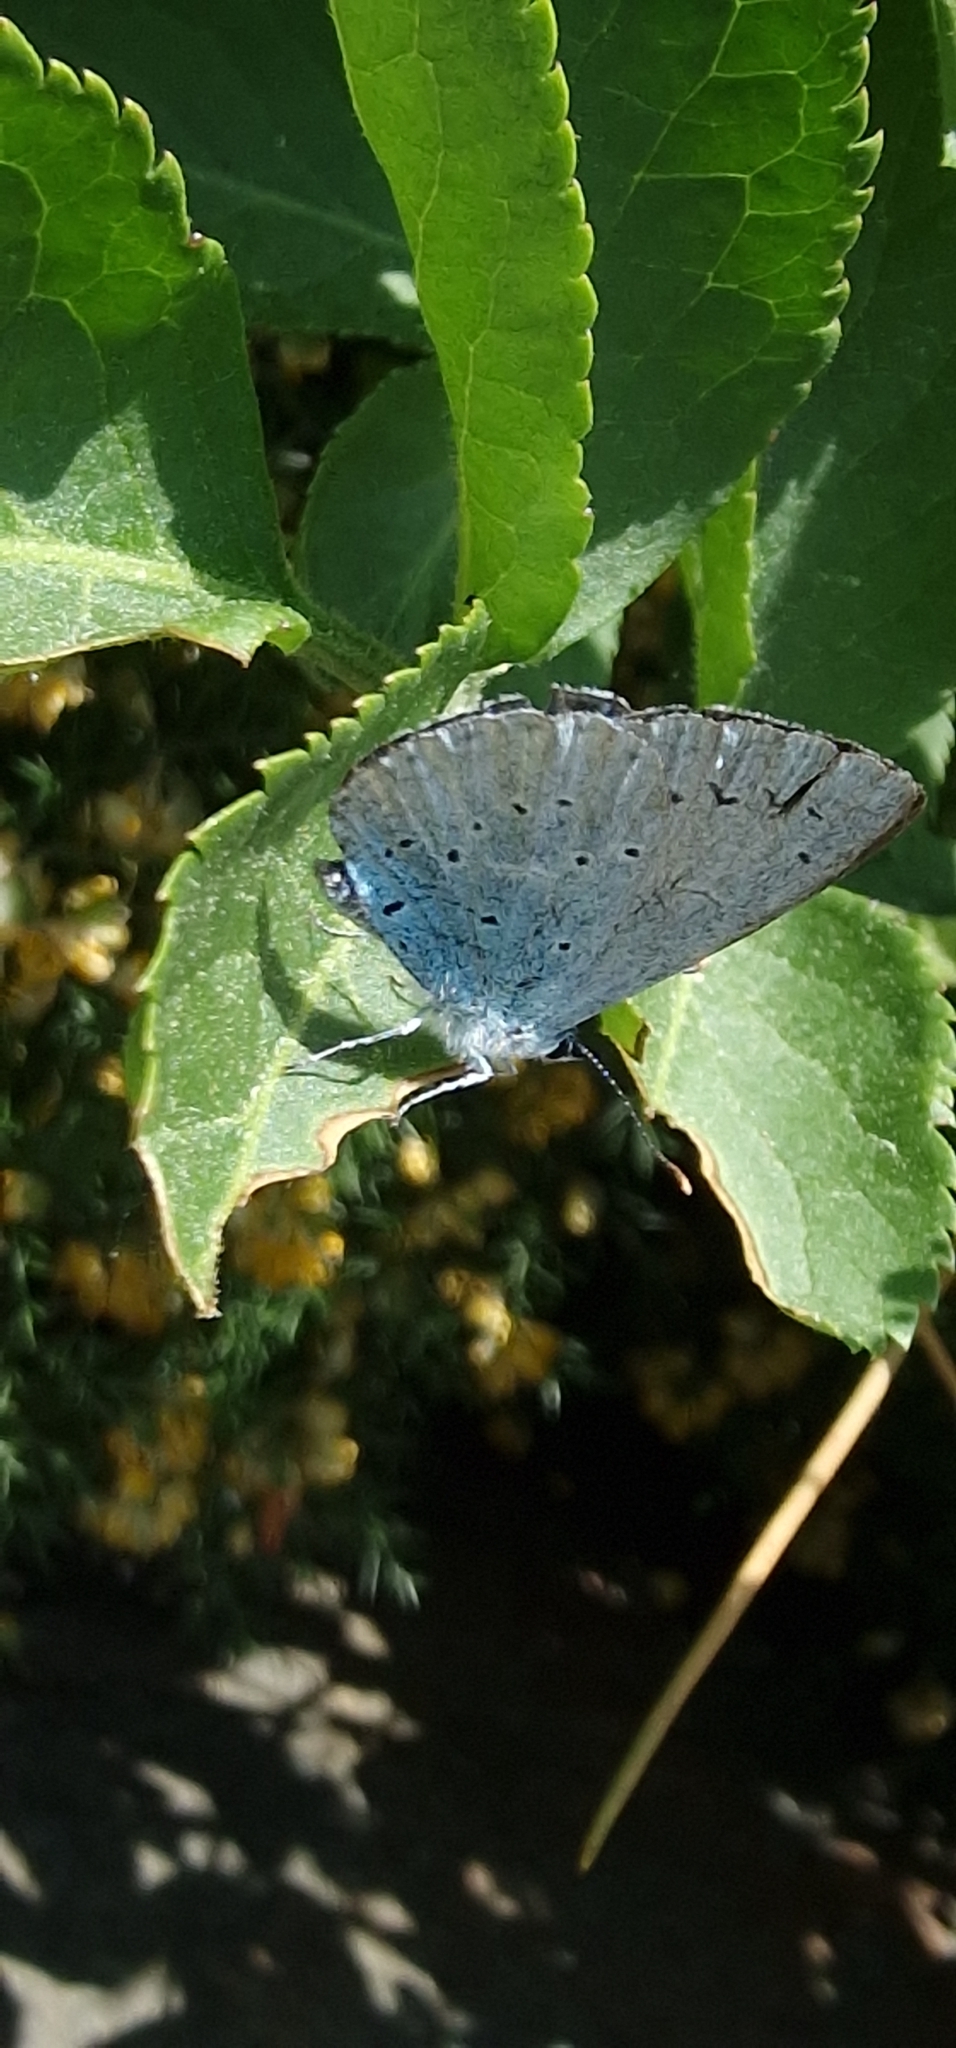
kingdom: Animalia
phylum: Arthropoda
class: Insecta
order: Lepidoptera
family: Lycaenidae
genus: Celastrina
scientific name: Celastrina argiolus
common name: Holly blue
